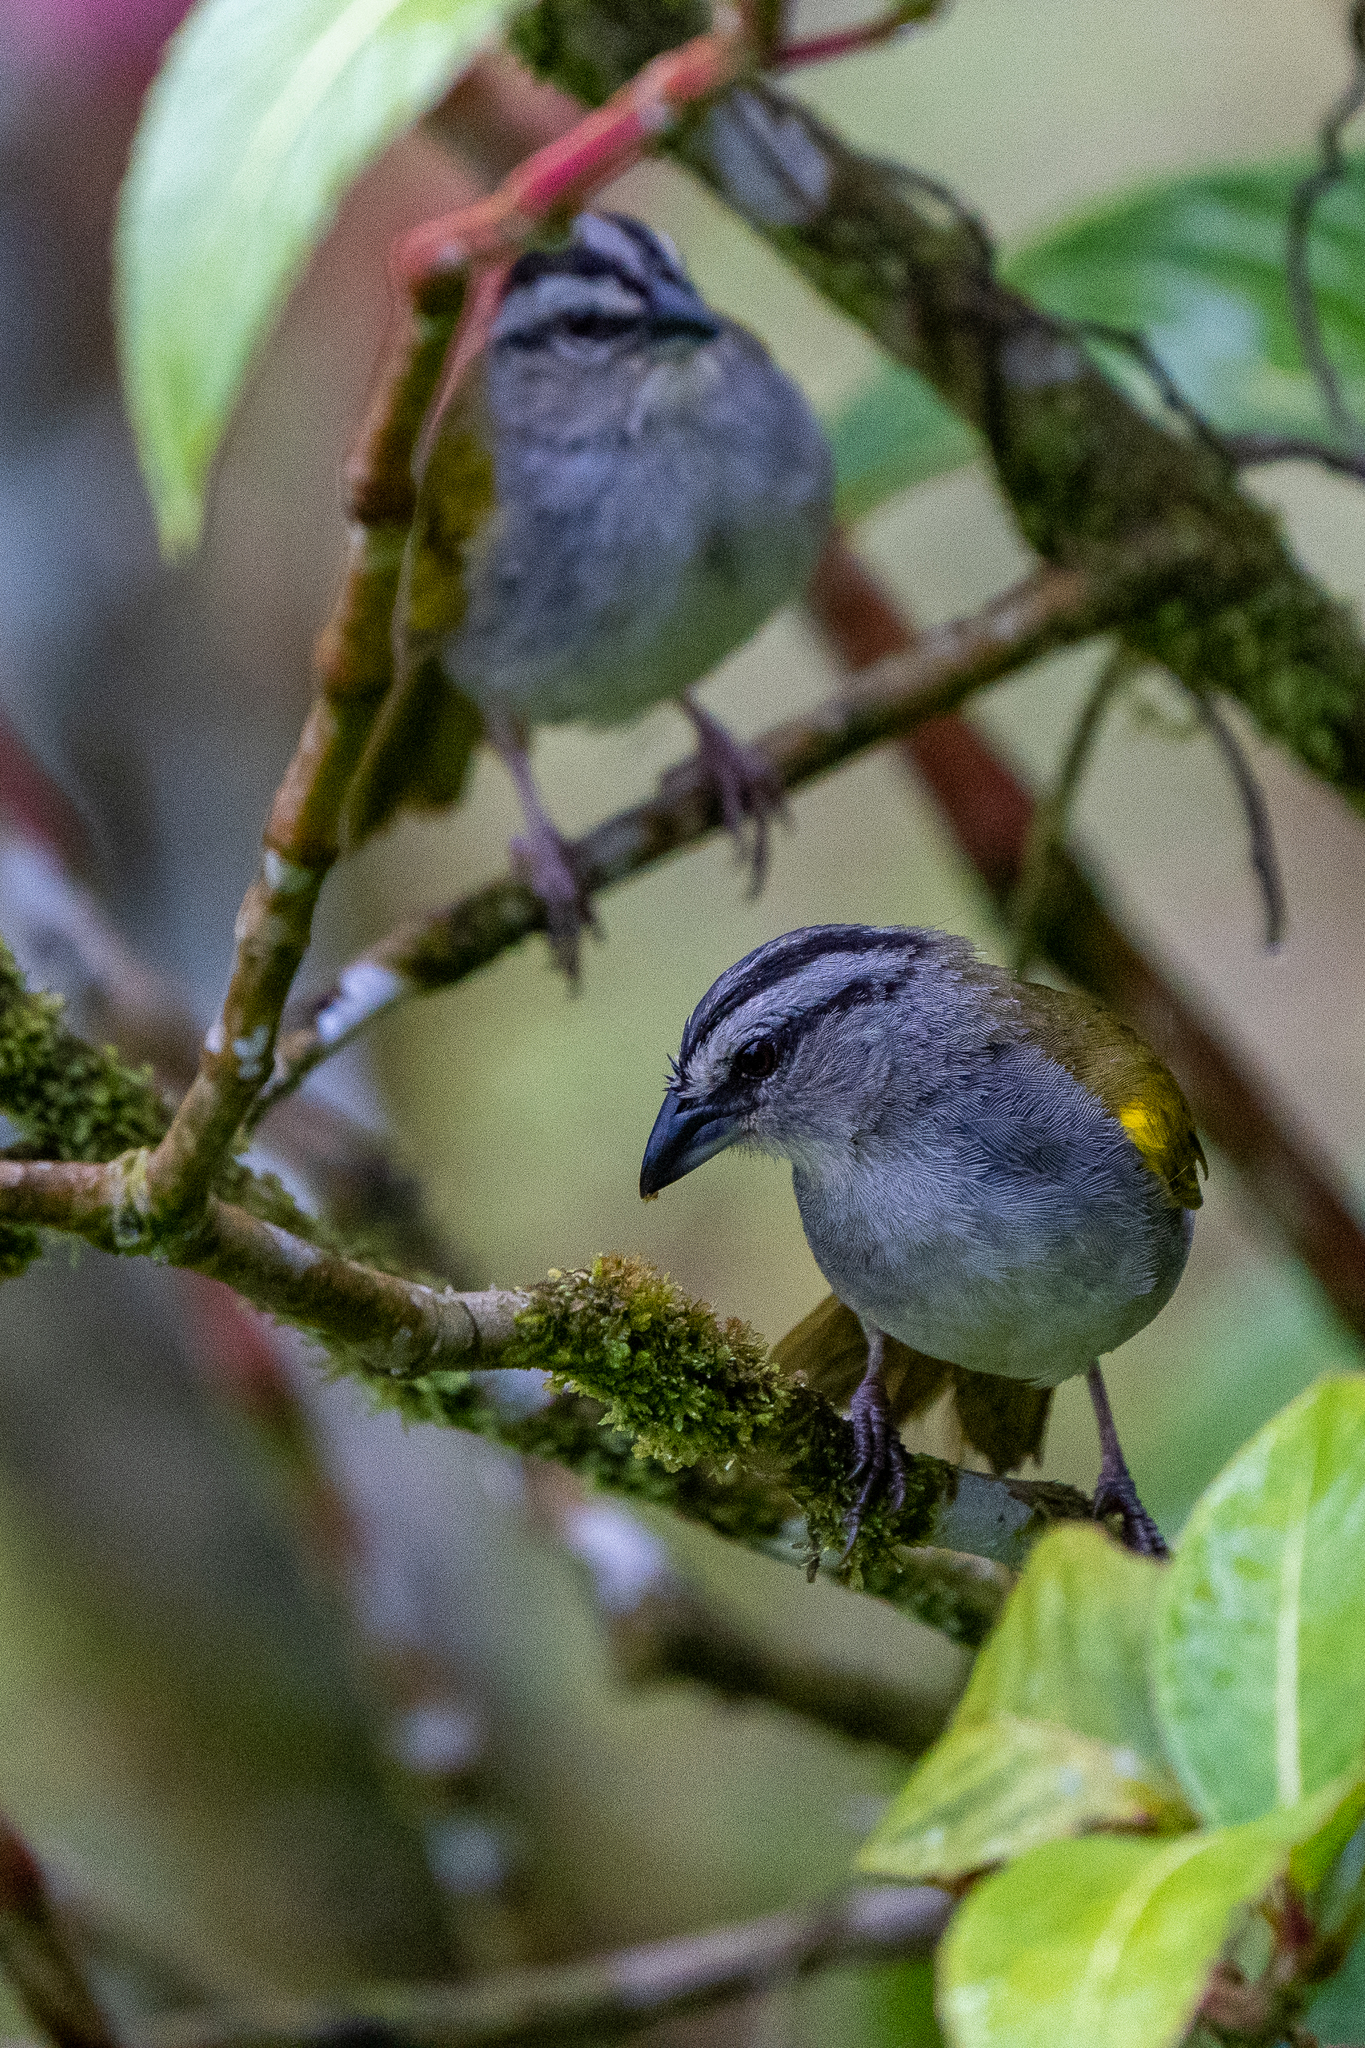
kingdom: Animalia
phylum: Chordata
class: Aves
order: Passeriformes
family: Passerellidae
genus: Arremonops
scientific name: Arremonops conirostris
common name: Black-striped sparrow
